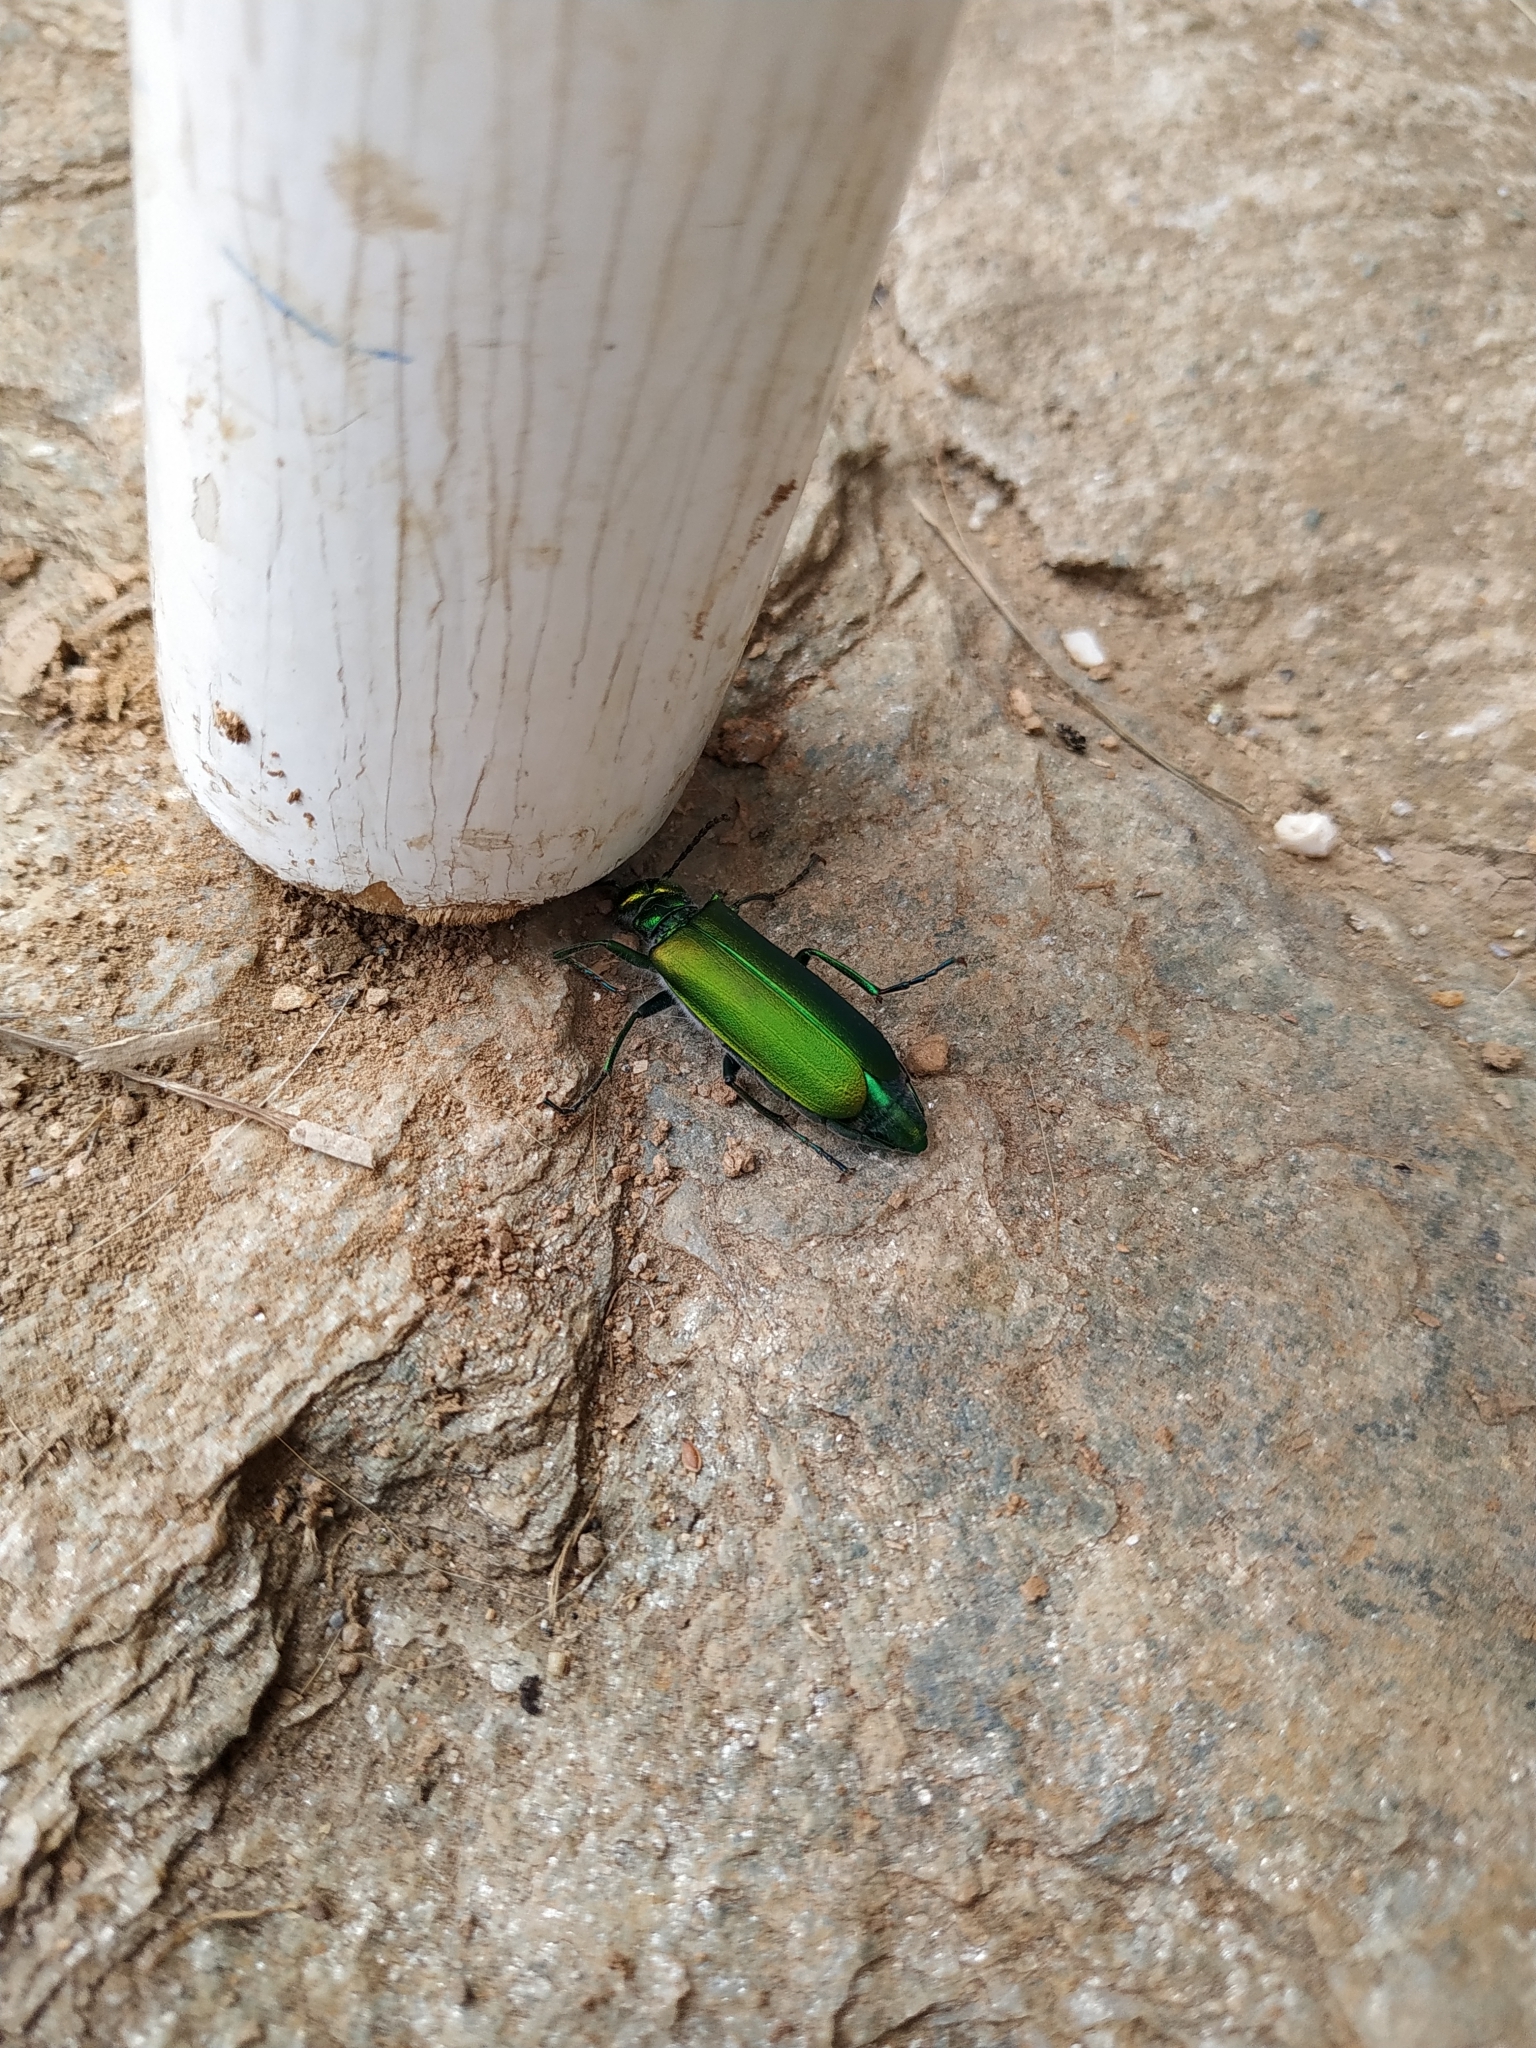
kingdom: Animalia
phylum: Arthropoda
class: Insecta
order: Coleoptera
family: Meloidae
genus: Lytta
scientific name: Lytta vesicatoria
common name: Spanish fly
